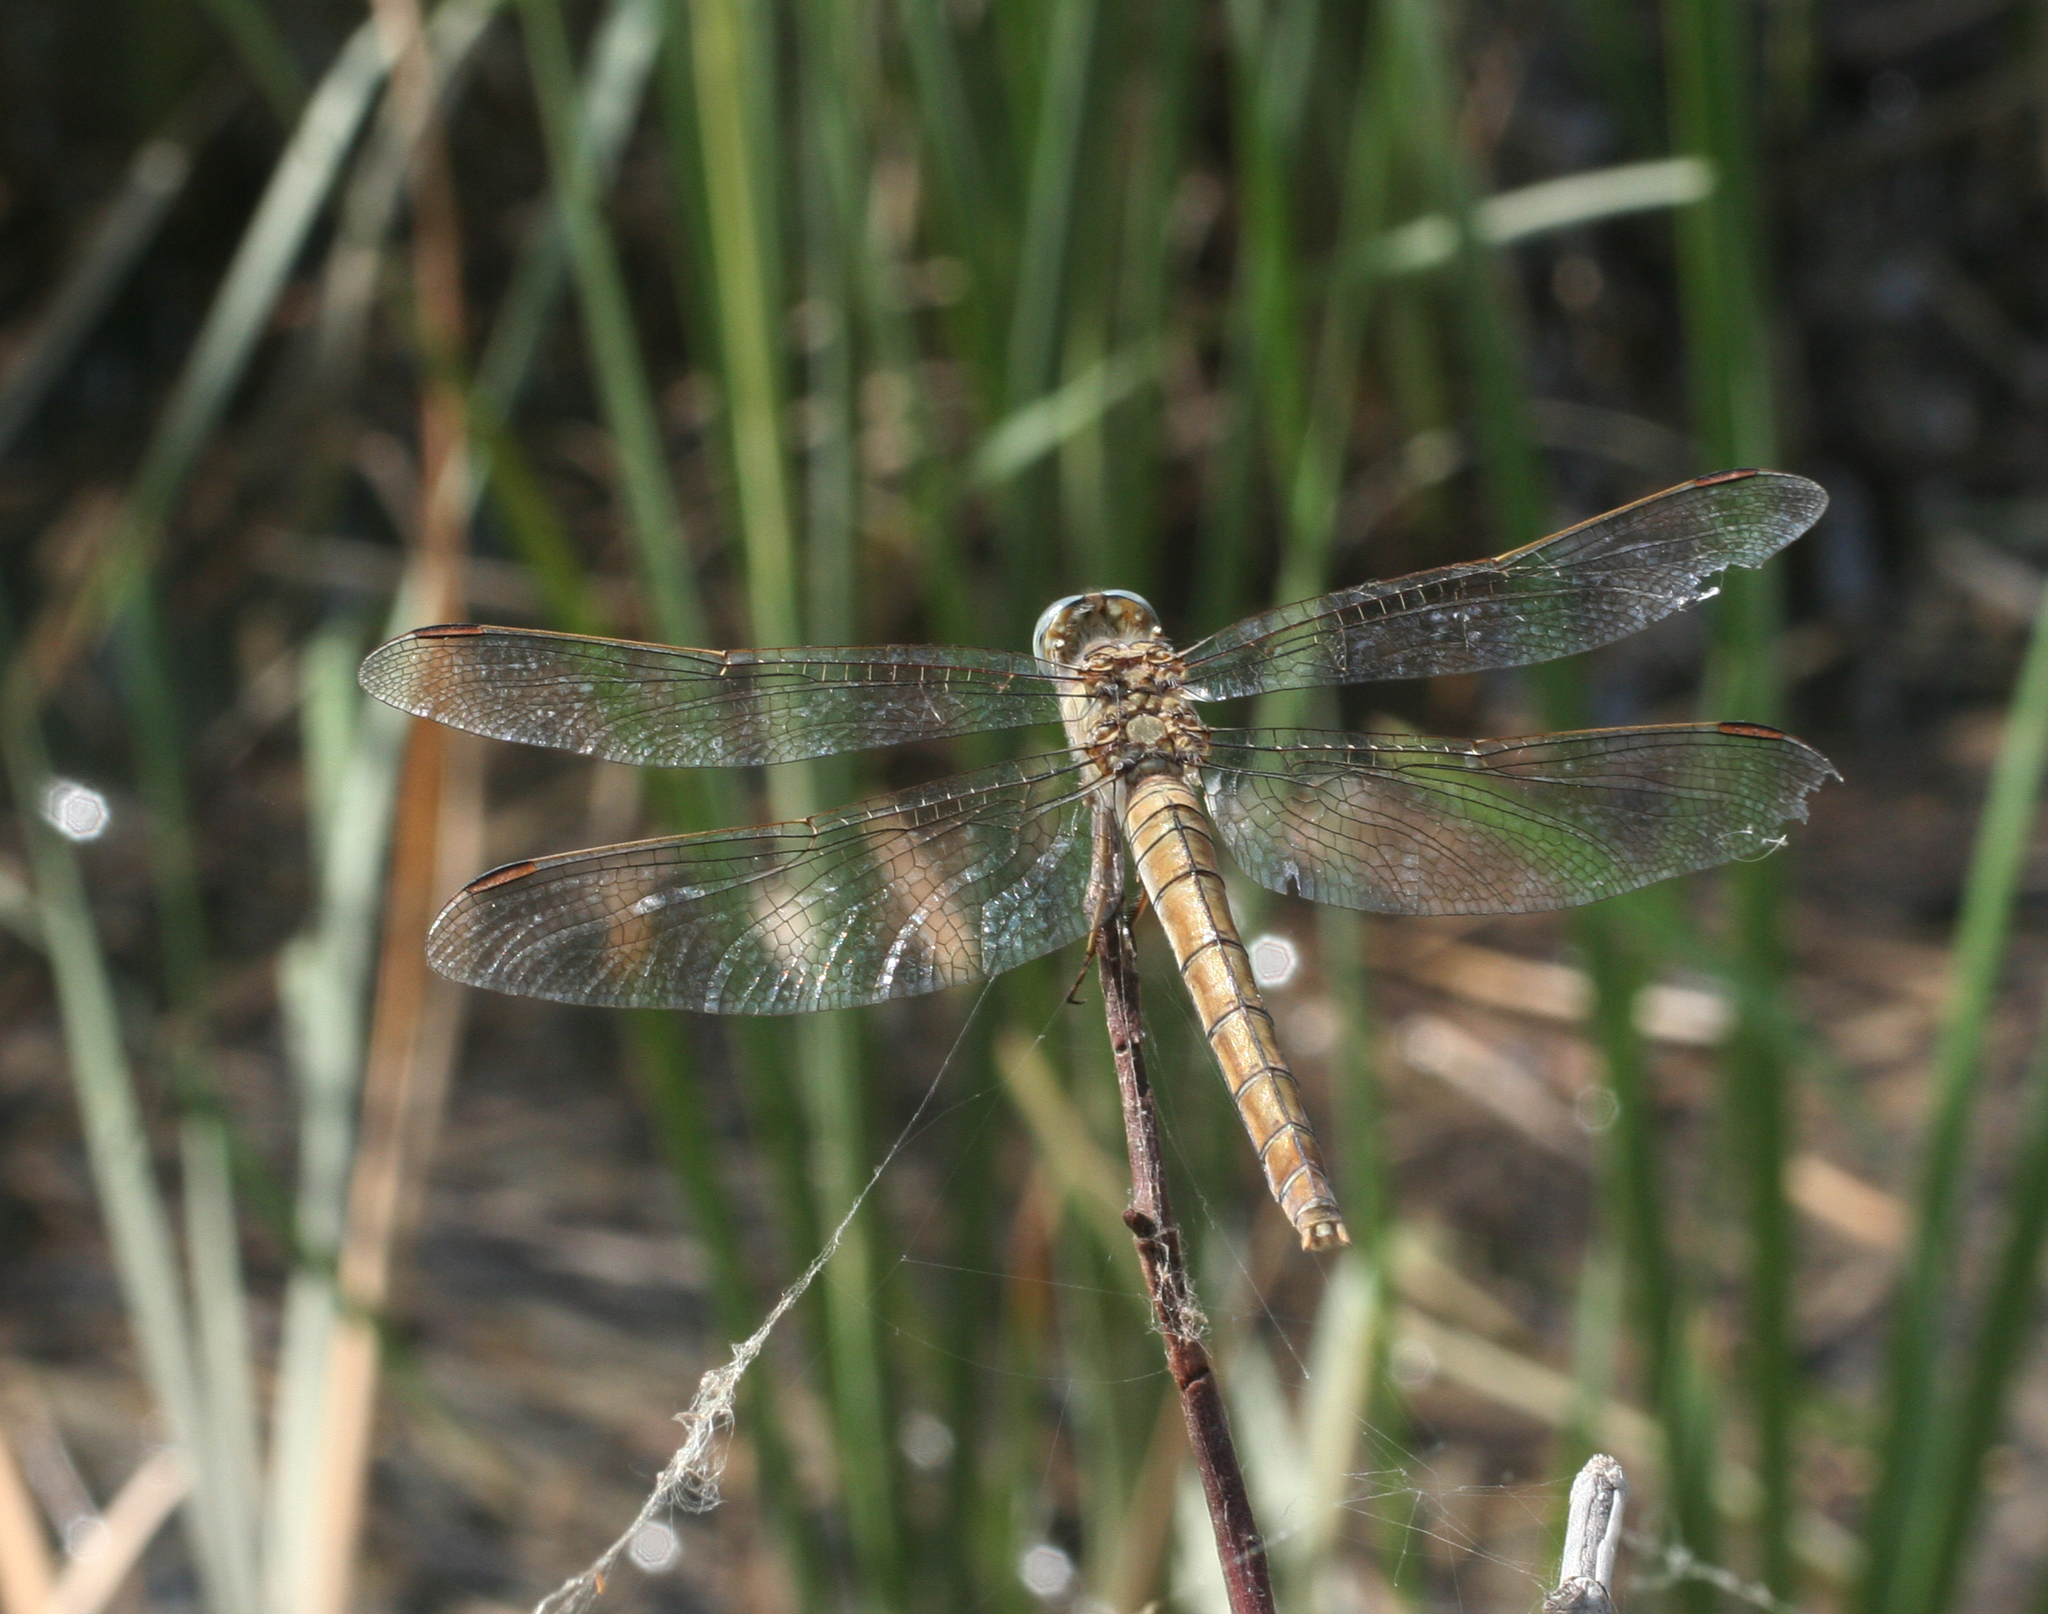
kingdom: Animalia
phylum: Arthropoda
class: Insecta
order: Odonata
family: Libellulidae
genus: Orthetrum
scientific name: Orthetrum brunneum
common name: Southern skimmer
